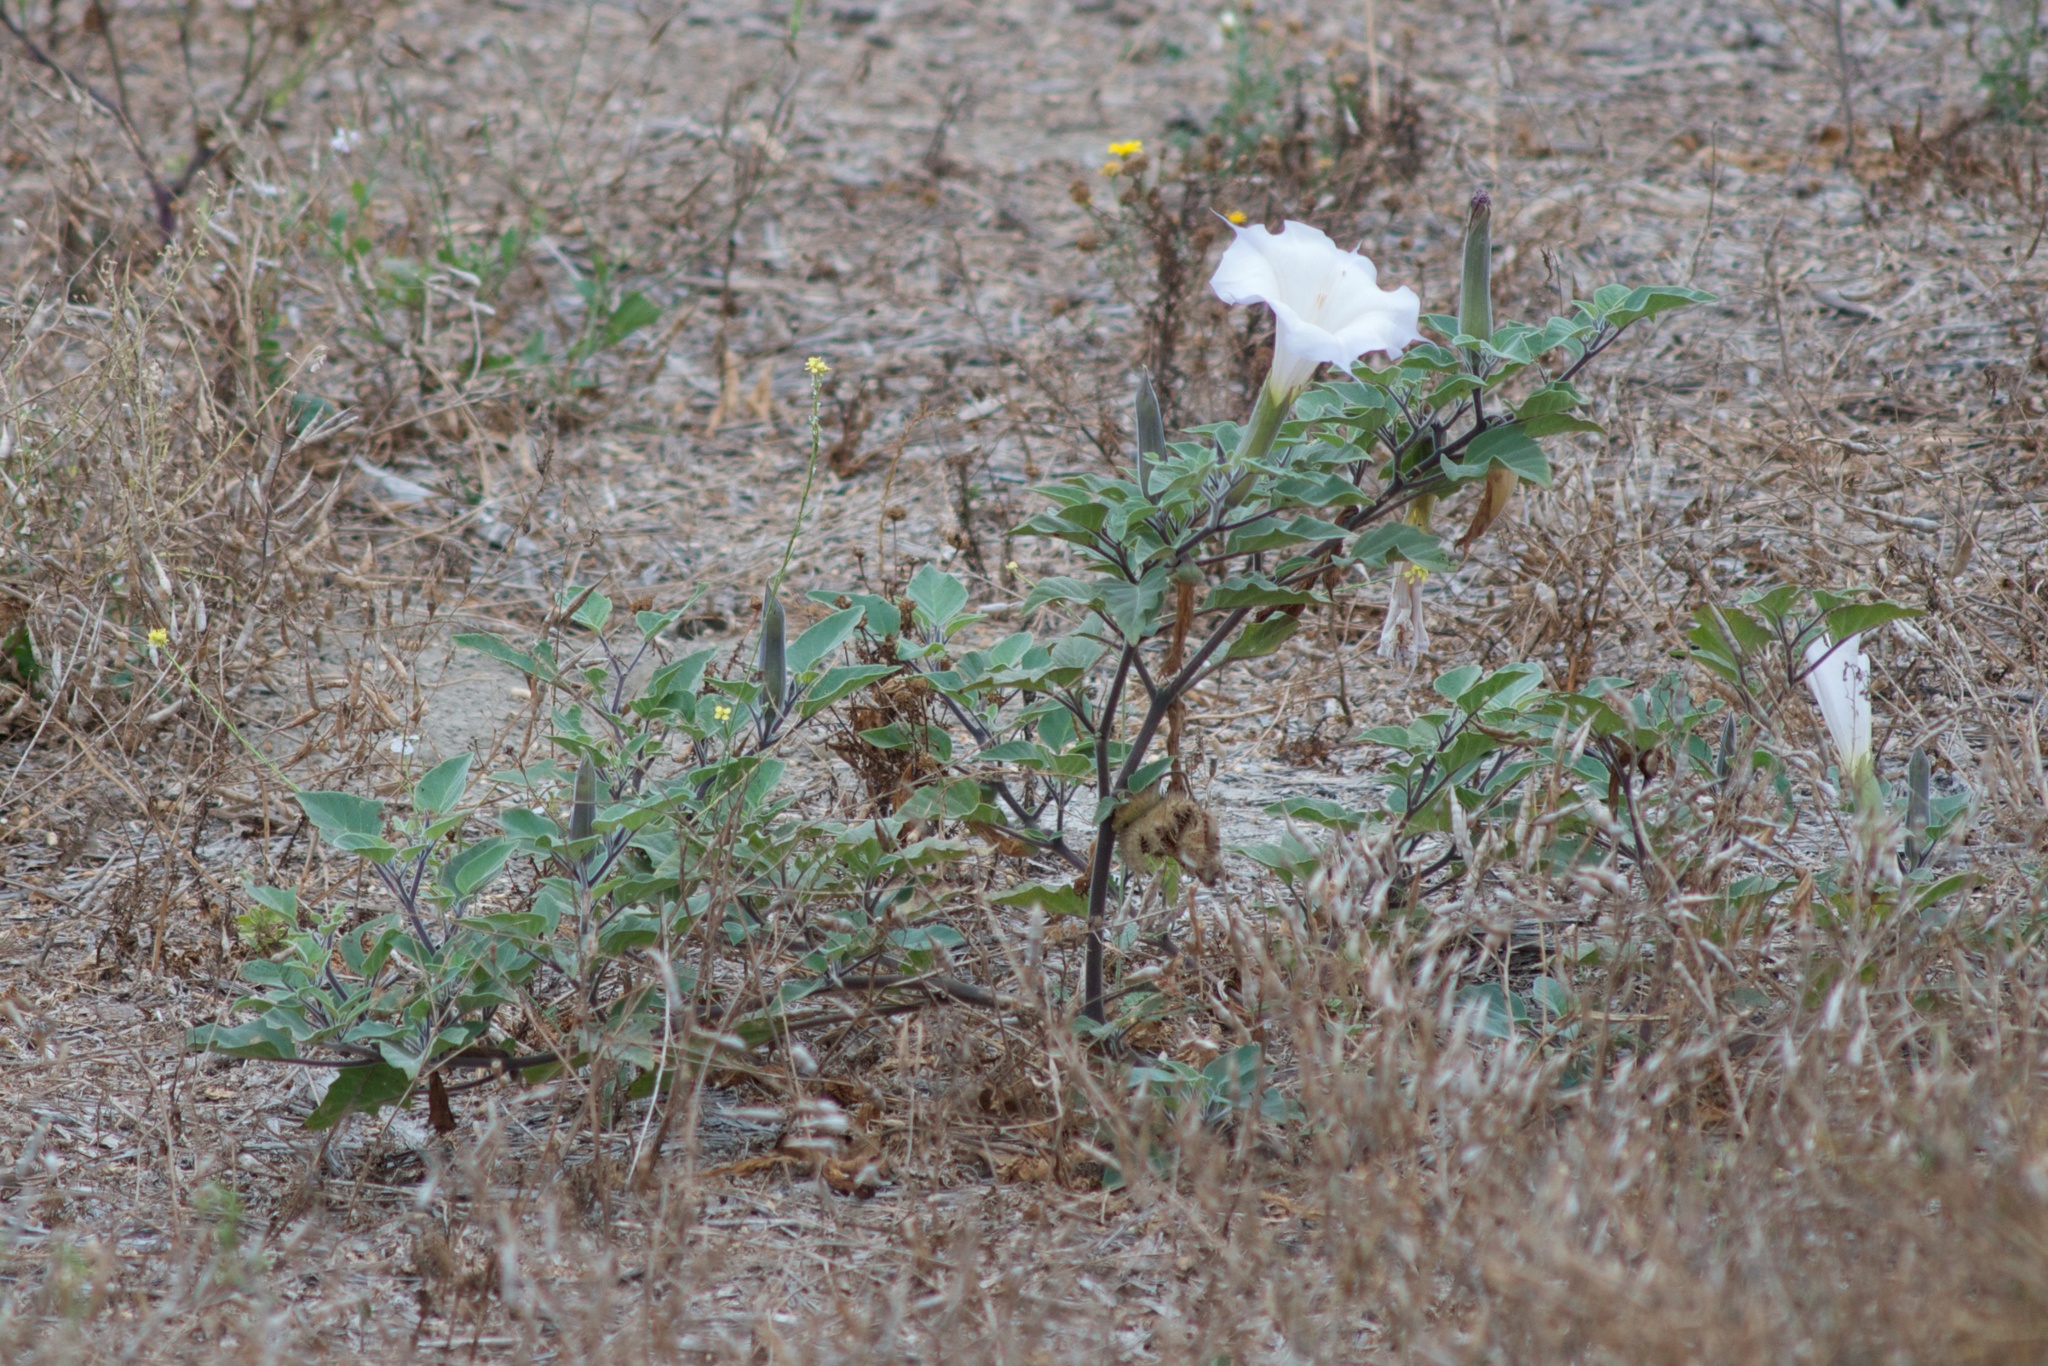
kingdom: Plantae
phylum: Tracheophyta
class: Magnoliopsida
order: Solanales
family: Solanaceae
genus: Datura
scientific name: Datura wrightii
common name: Sacred thorn-apple
